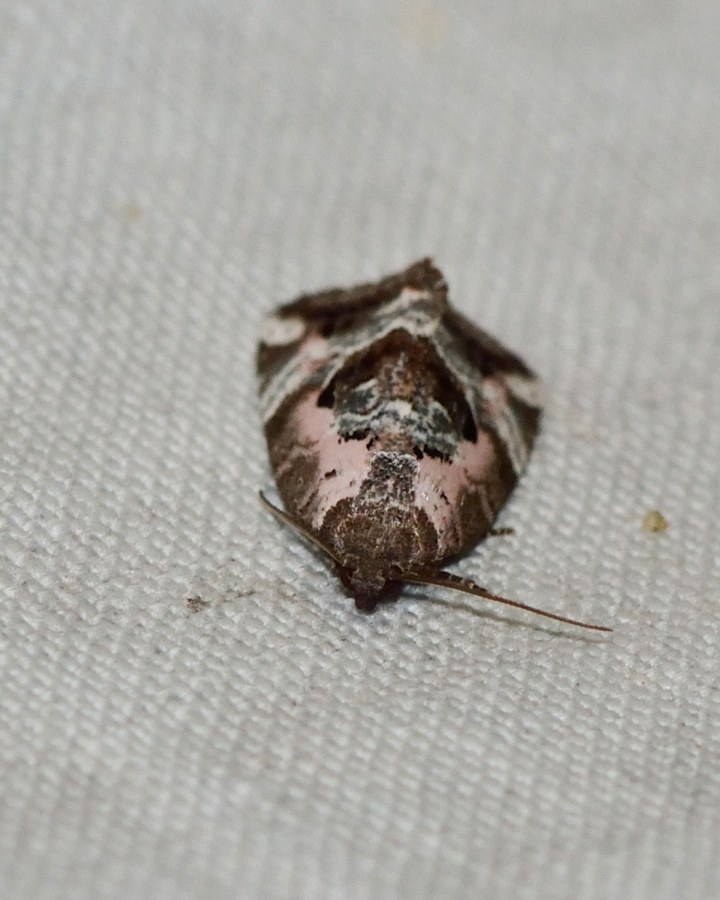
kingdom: Animalia
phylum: Arthropoda
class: Insecta
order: Lepidoptera
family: Noctuidae
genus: Elaphria
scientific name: Elaphria venustula
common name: Rosy marbled
